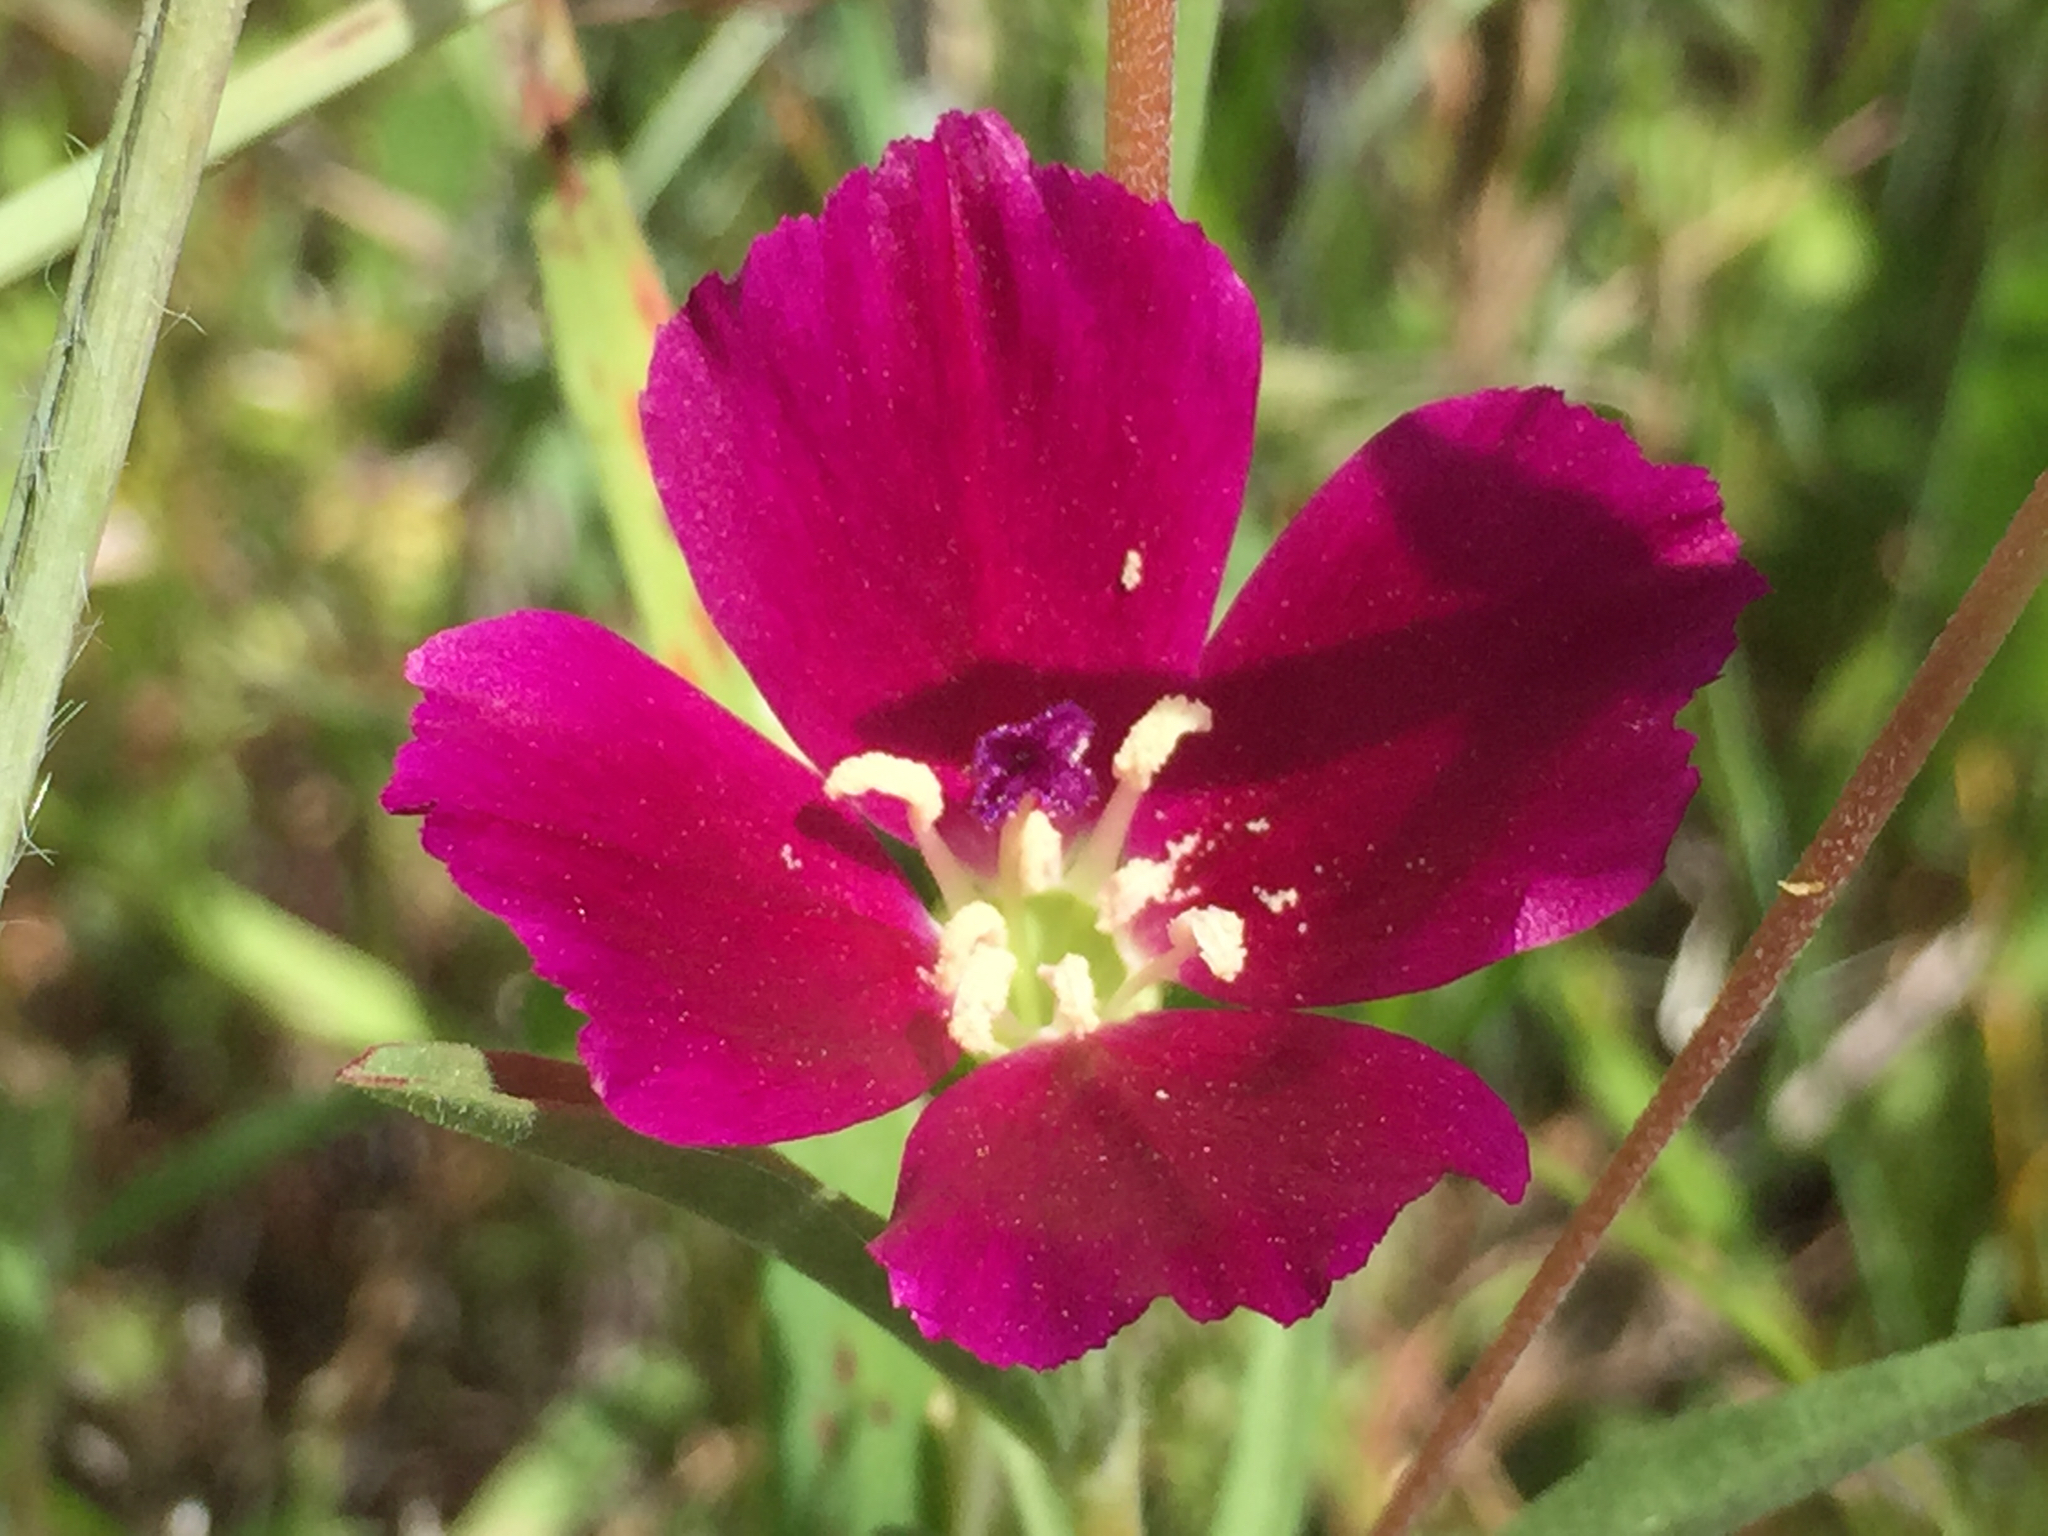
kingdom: Plantae
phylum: Tracheophyta
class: Magnoliopsida
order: Myrtales
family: Onagraceae
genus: Clarkia
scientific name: Clarkia purpurea
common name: Purple clarkia
